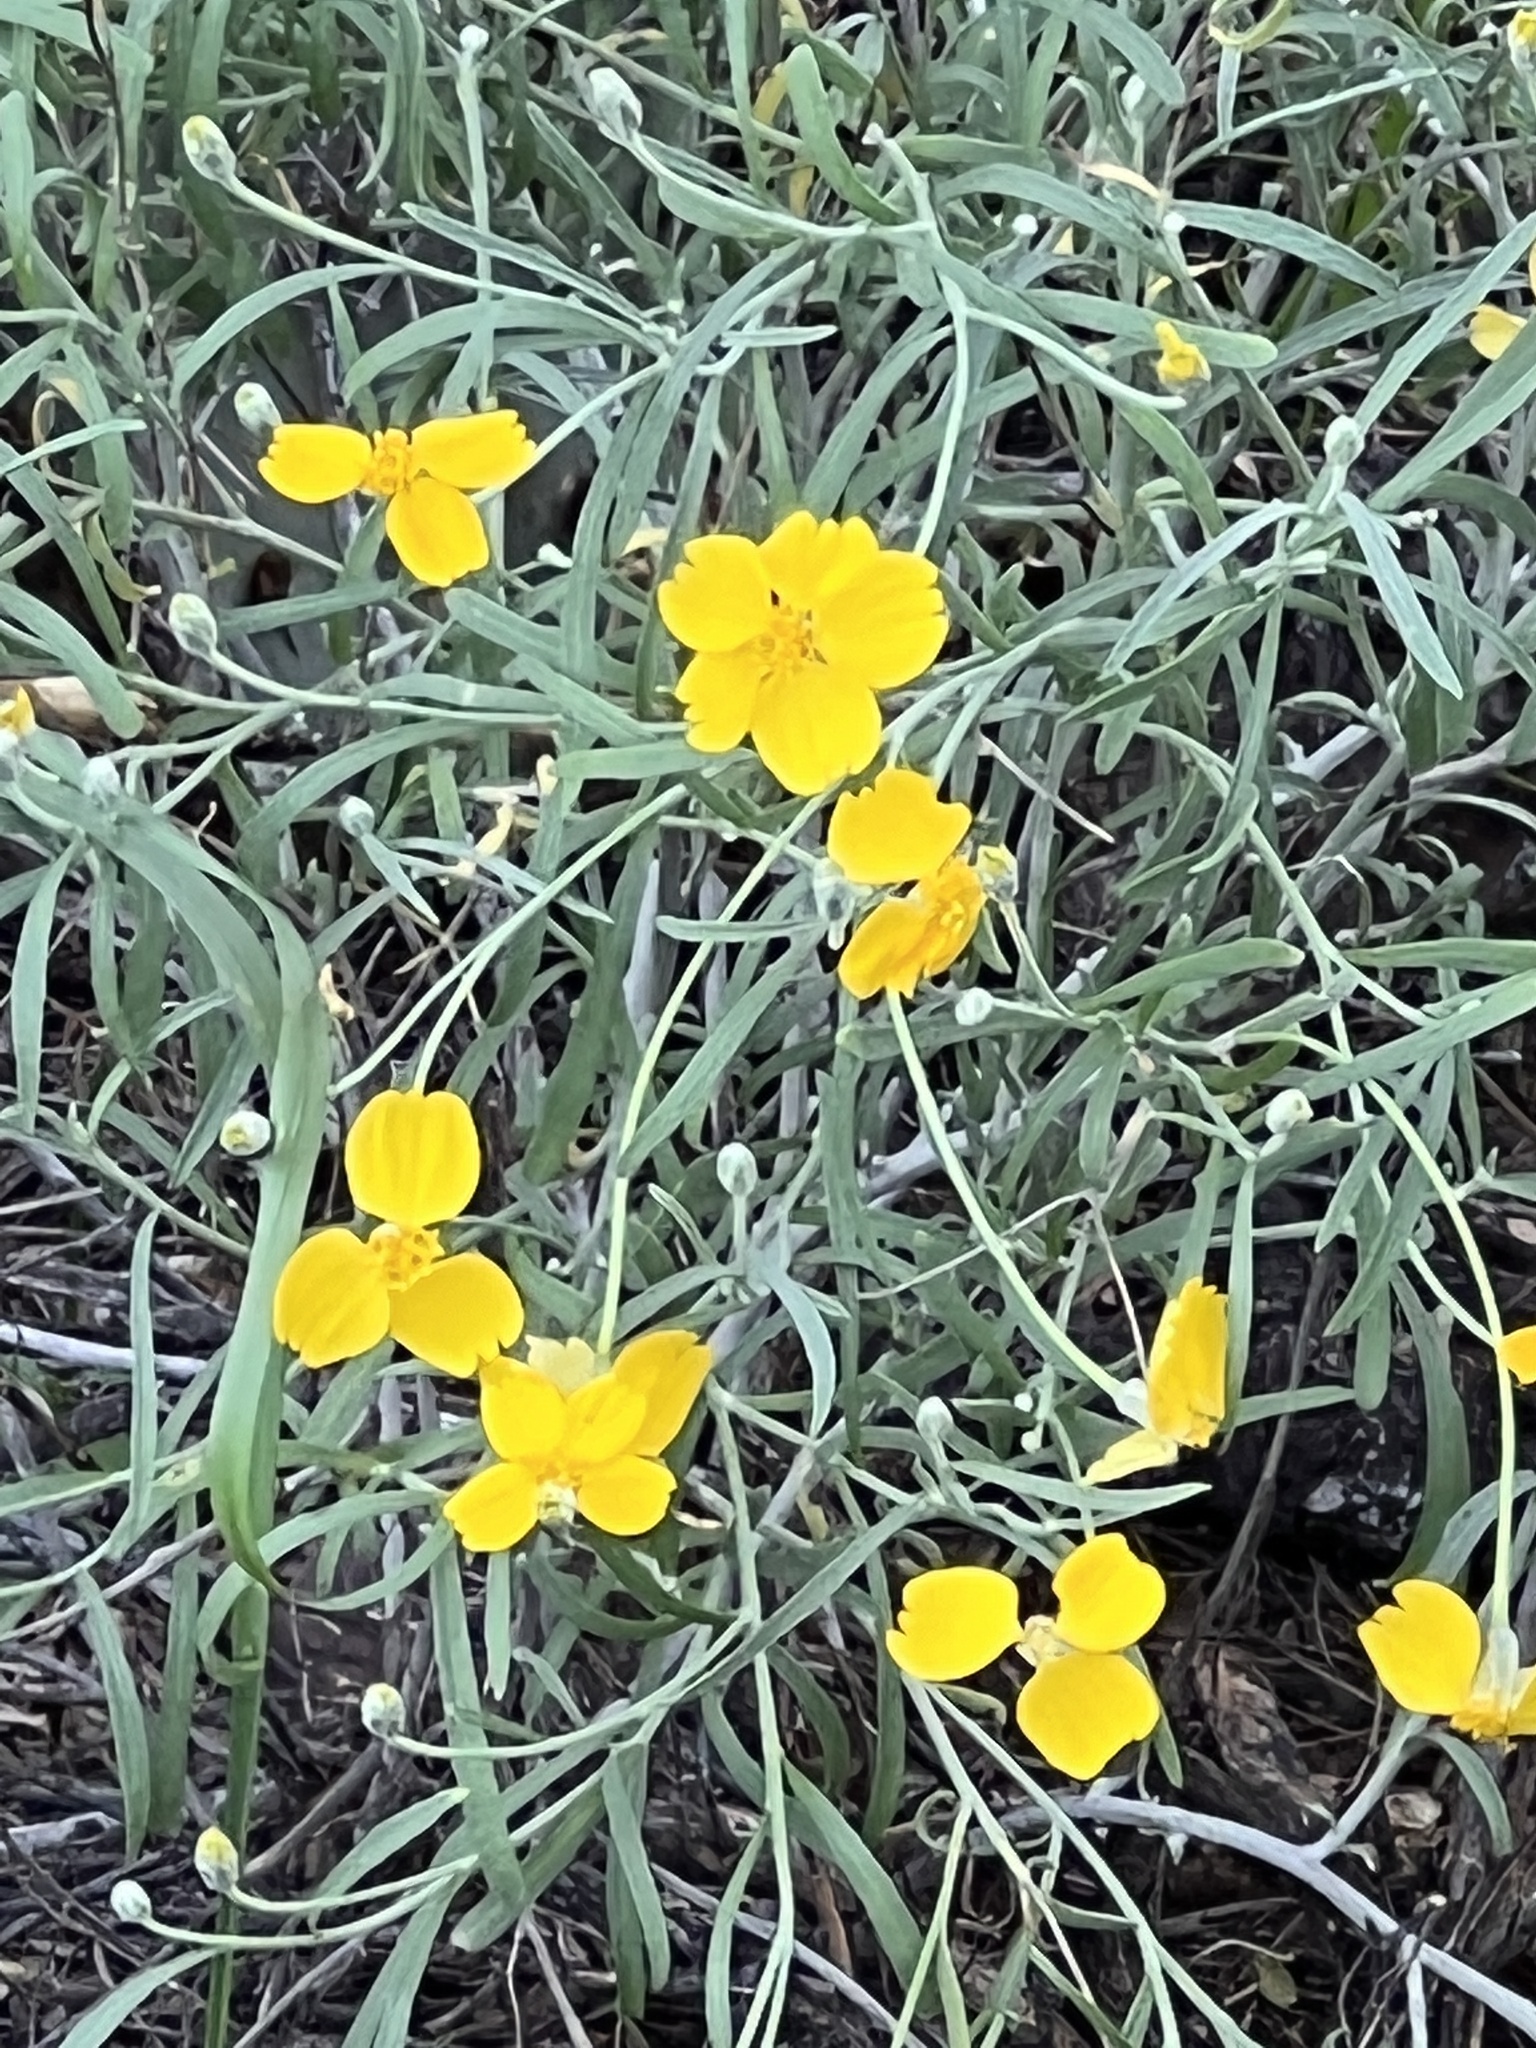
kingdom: Plantae
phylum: Tracheophyta
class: Magnoliopsida
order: Asterales
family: Asteraceae
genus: Psilostrophe
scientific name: Psilostrophe cooperi
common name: White-stem paper-flower
